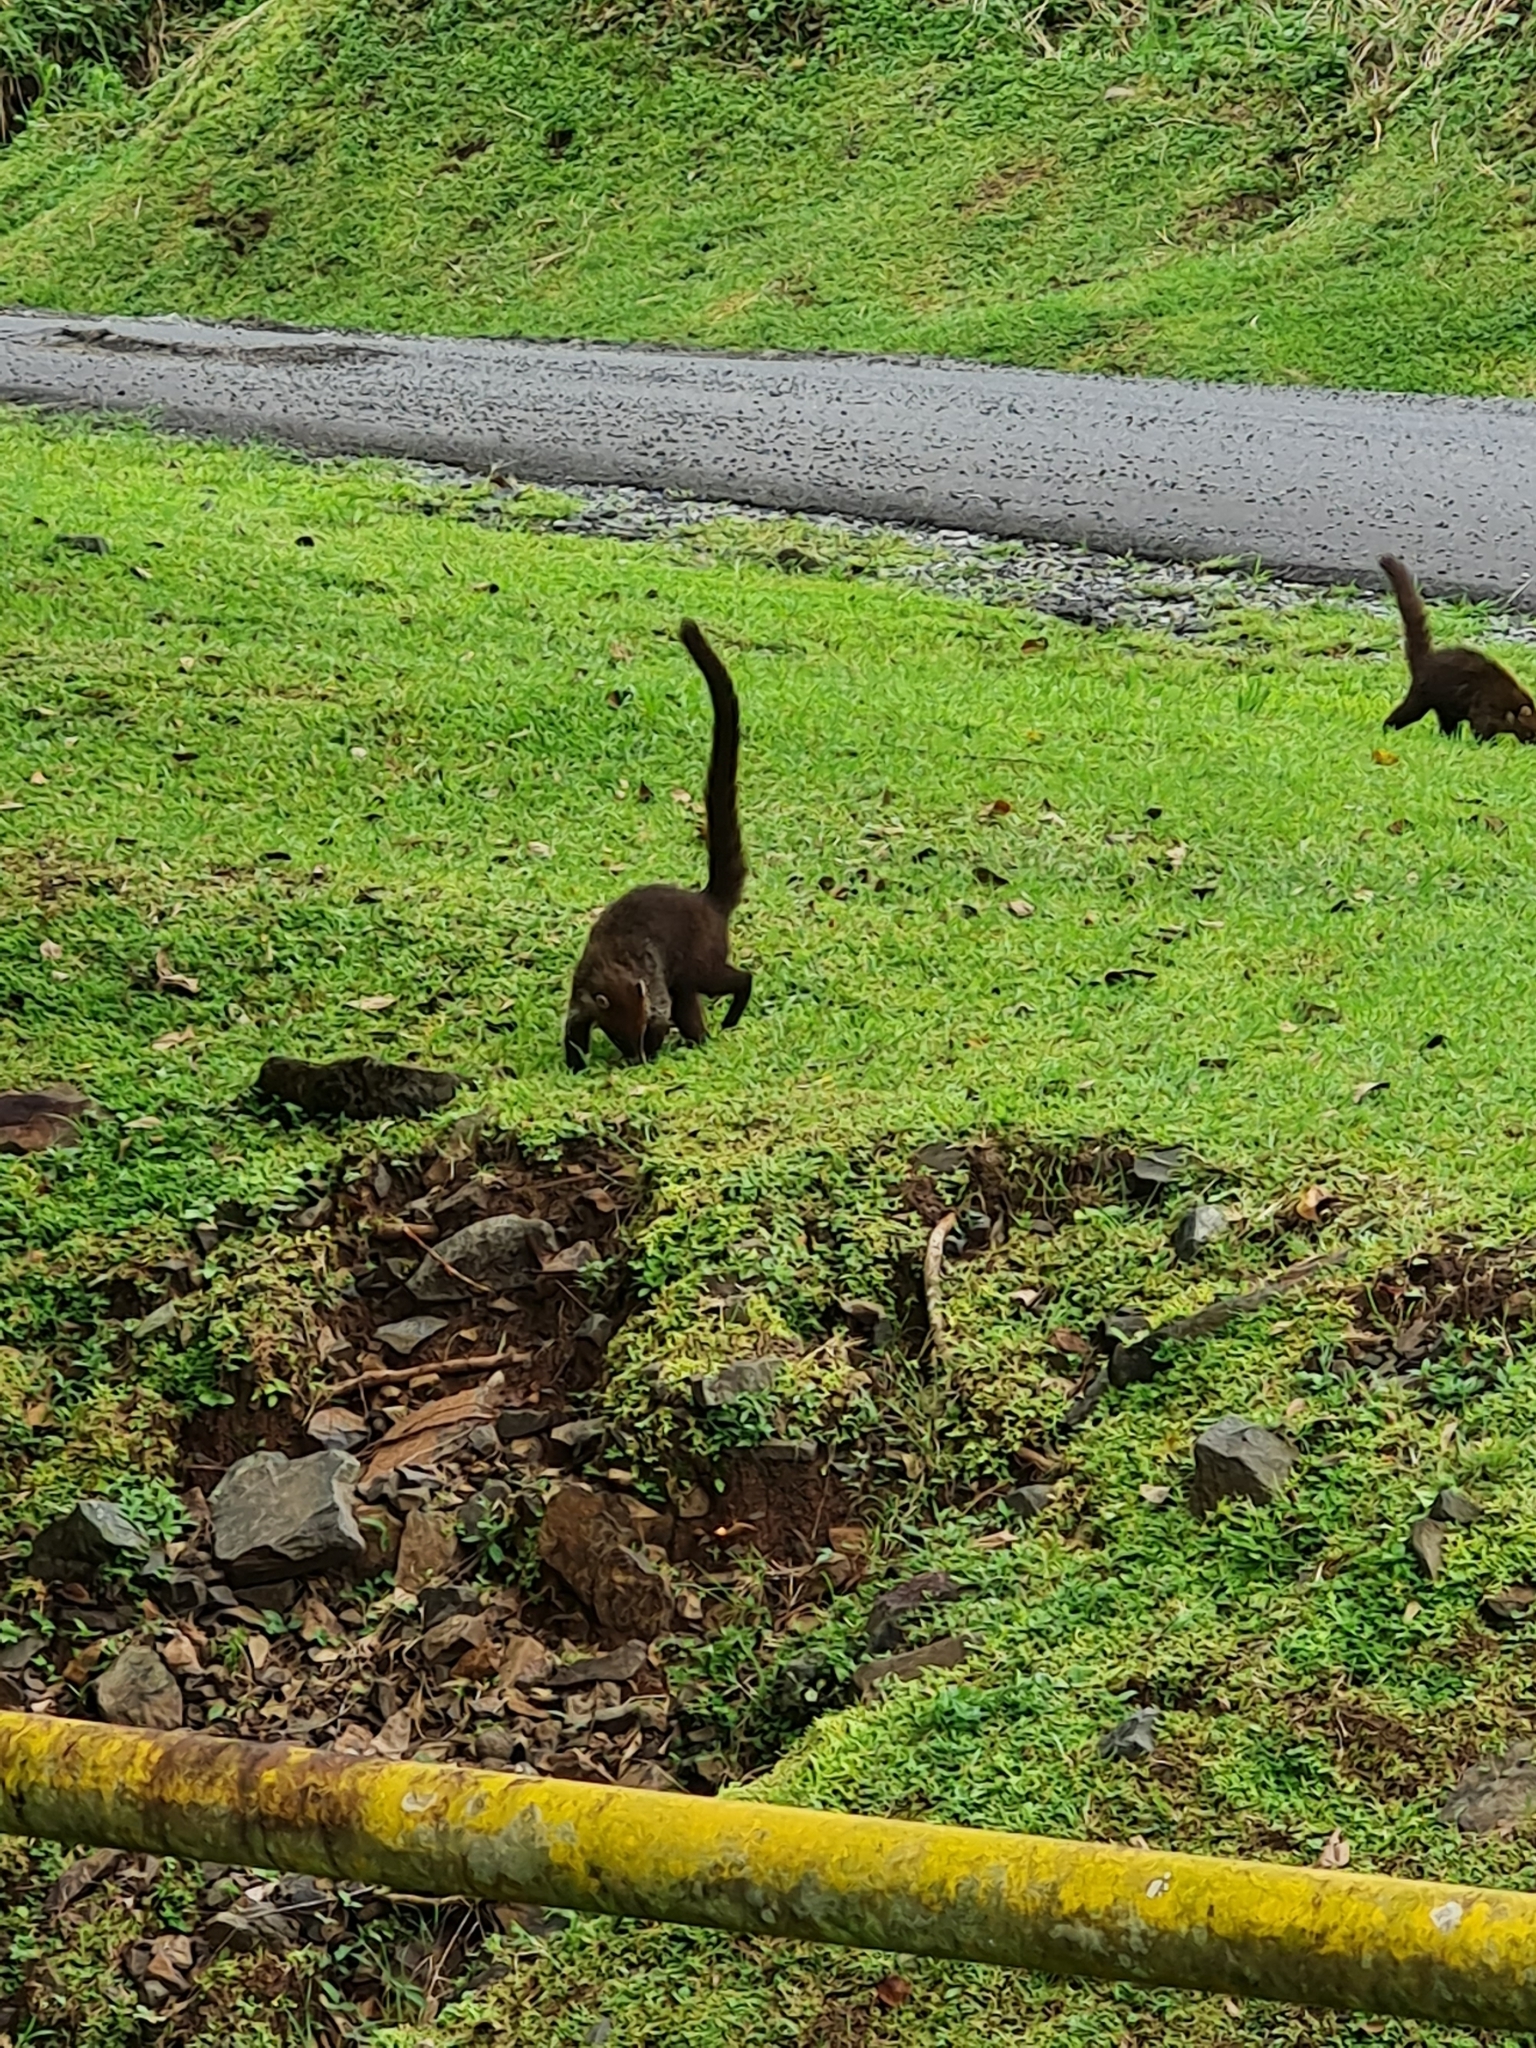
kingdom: Animalia
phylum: Chordata
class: Mammalia
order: Carnivora
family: Procyonidae
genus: Nasua
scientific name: Nasua narica
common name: White-nosed coati
